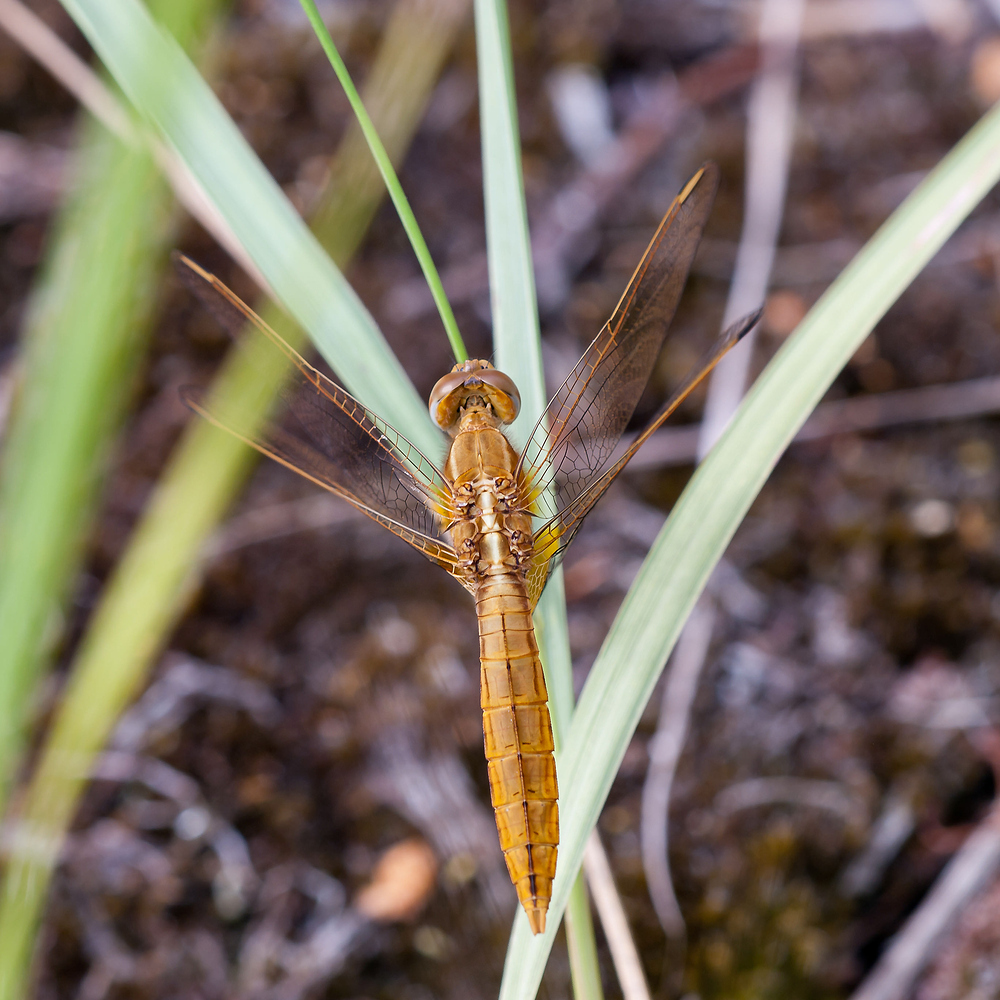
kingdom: Animalia
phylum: Arthropoda
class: Insecta
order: Odonata
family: Libellulidae
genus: Crocothemis
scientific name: Crocothemis erythraea
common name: Scarlet dragonfly
